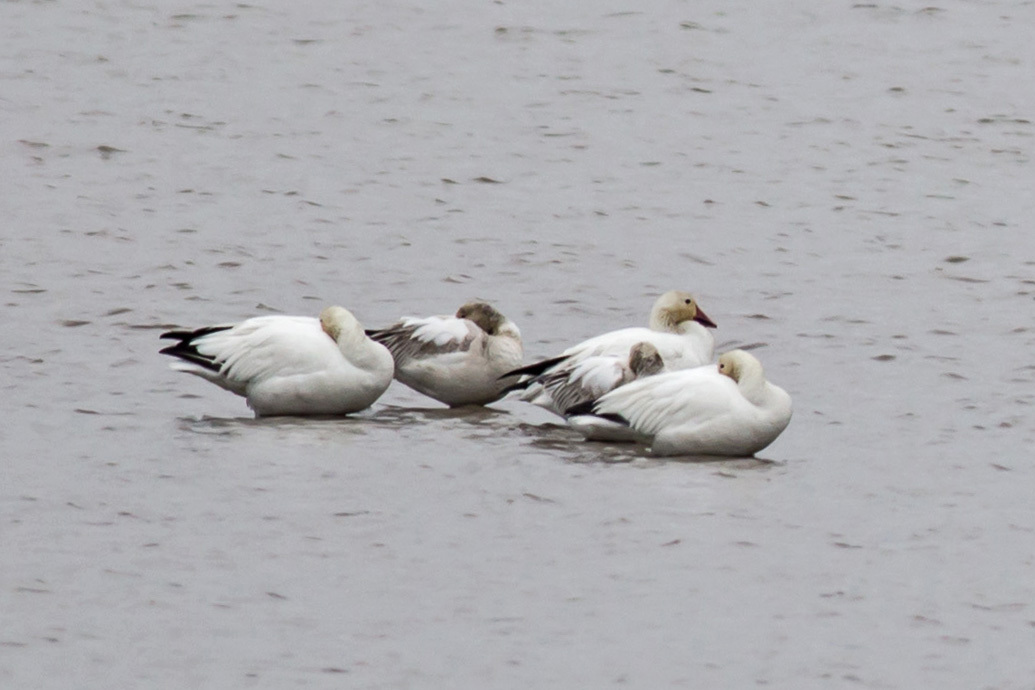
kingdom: Animalia
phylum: Chordata
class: Aves
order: Anseriformes
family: Anatidae
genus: Anser
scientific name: Anser caerulescens
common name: Snow goose
